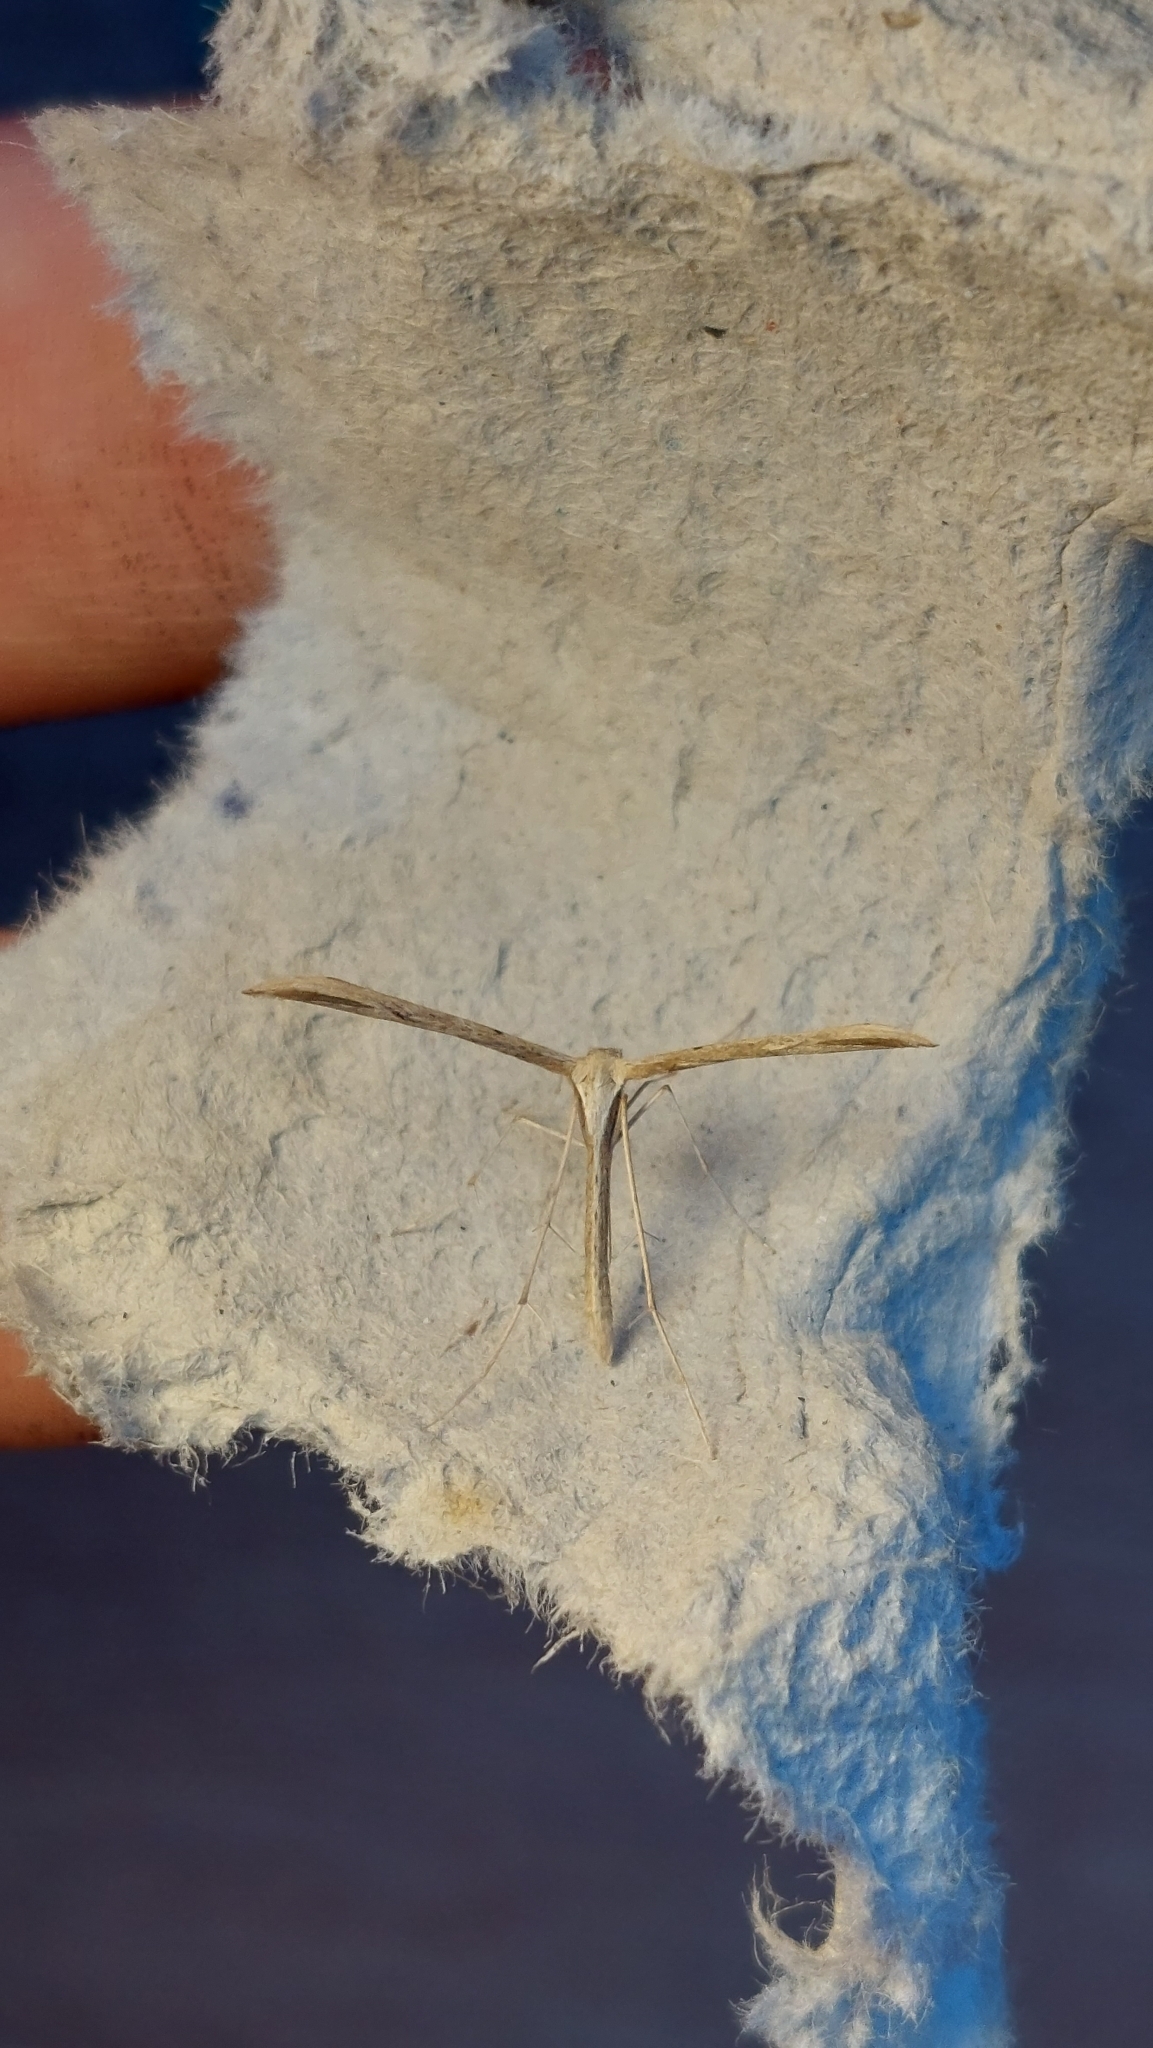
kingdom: Animalia
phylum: Arthropoda
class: Insecta
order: Lepidoptera
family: Pterophoridae
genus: Emmelina
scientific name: Emmelina monodactyla
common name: Common plume
